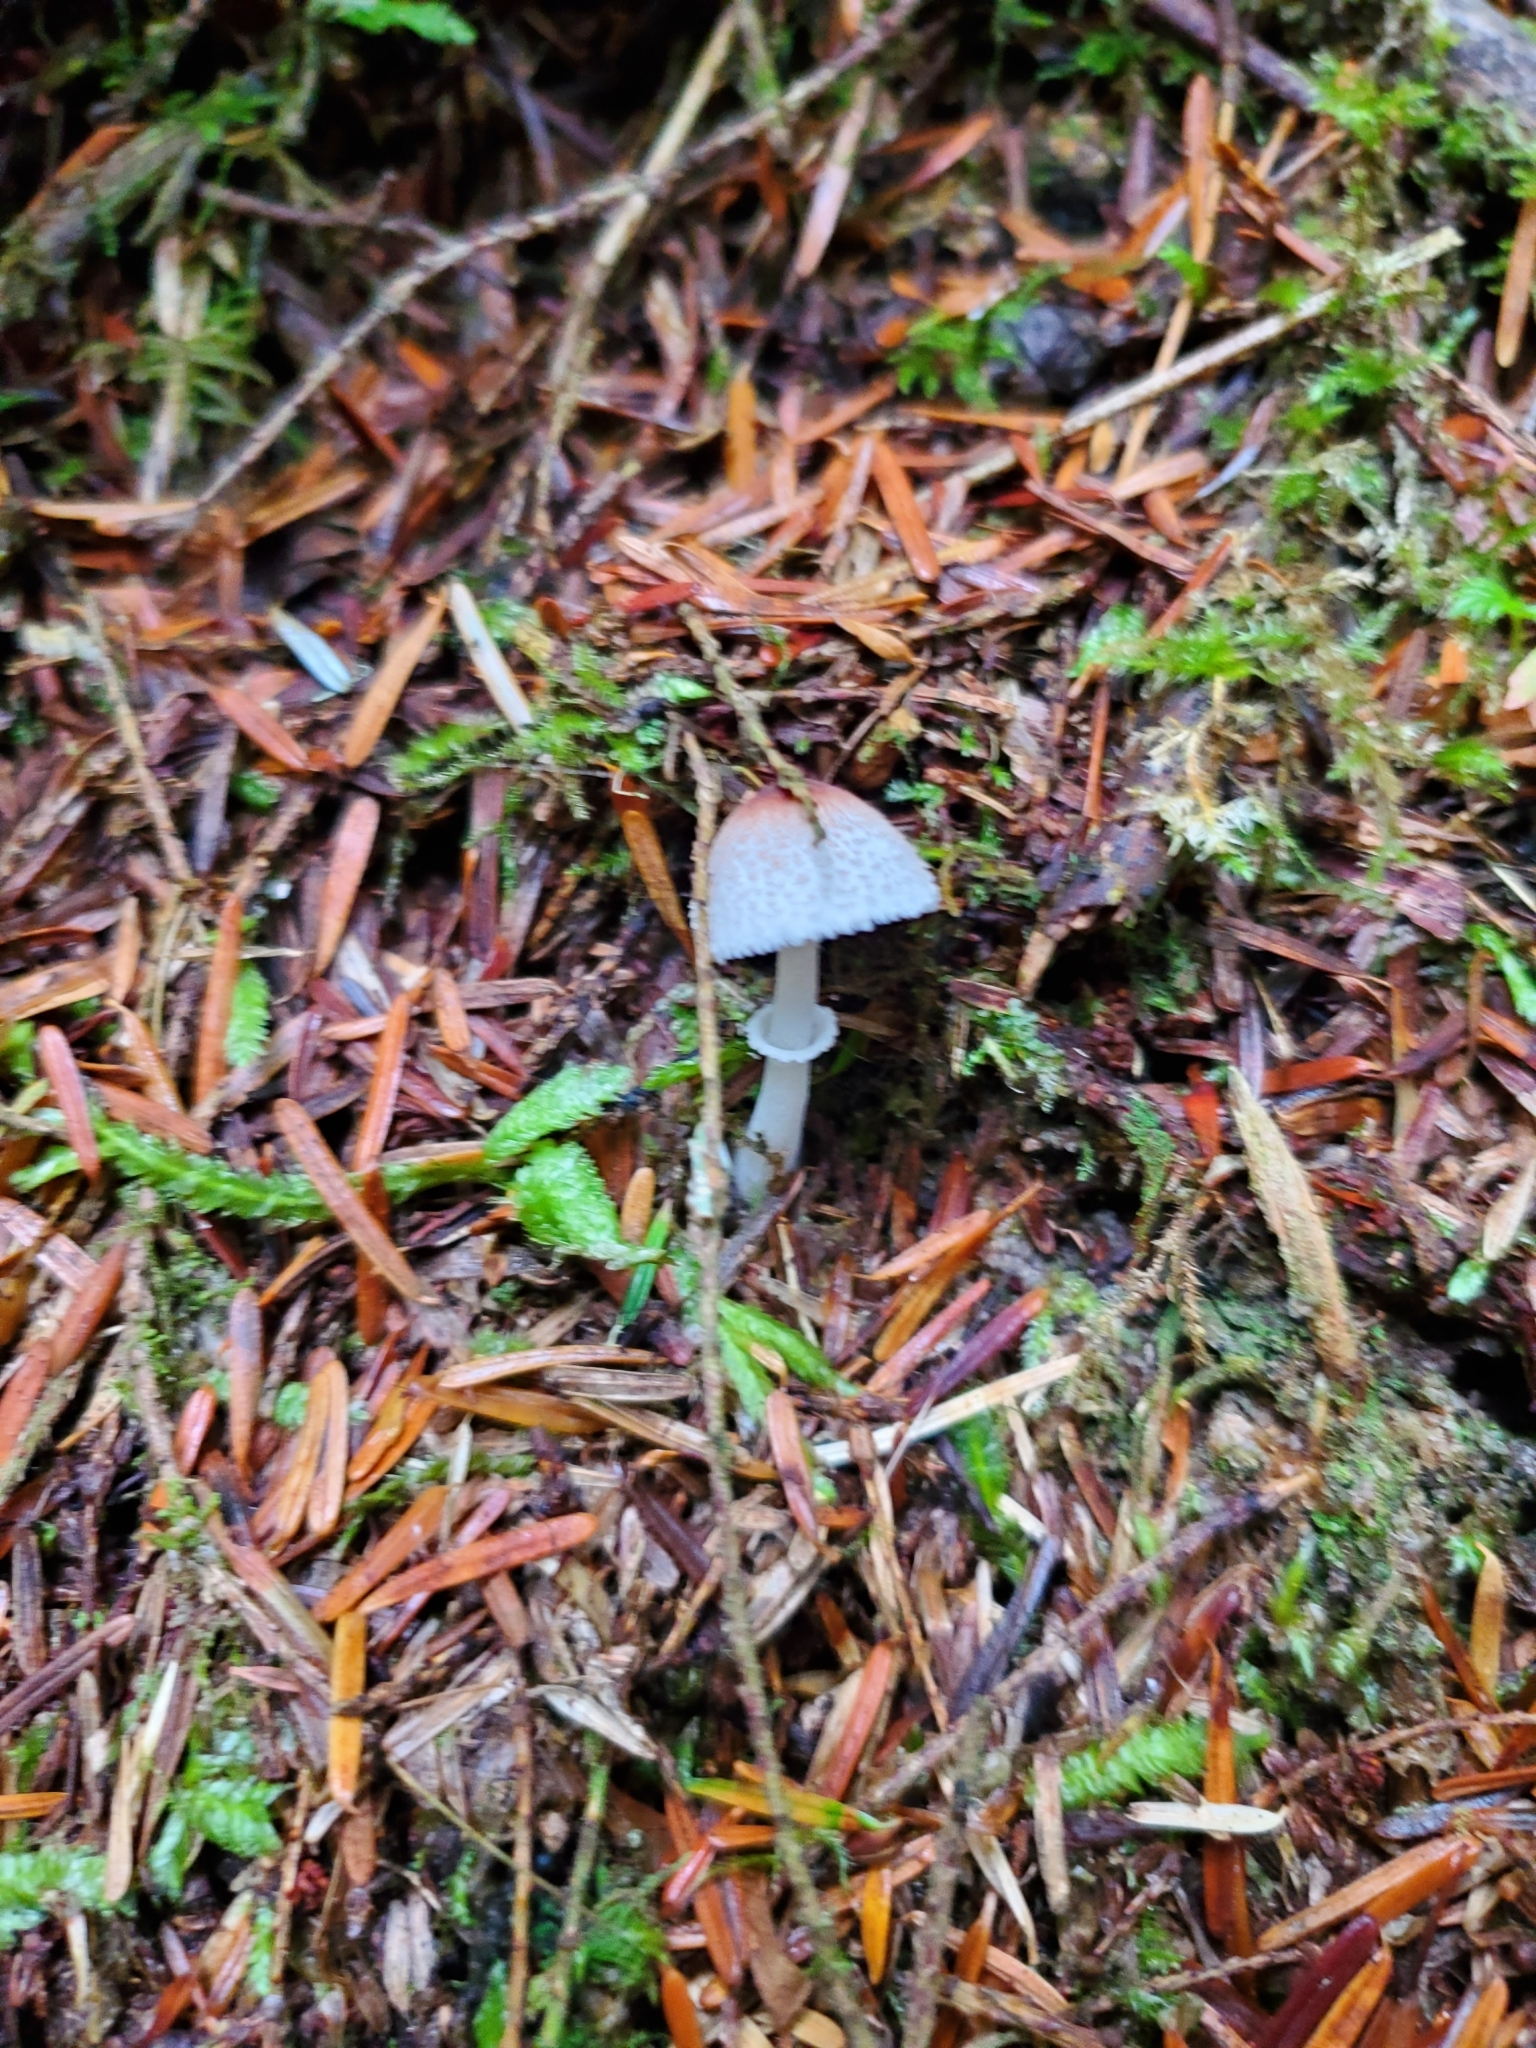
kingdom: Fungi
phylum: Basidiomycota
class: Agaricomycetes
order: Agaricales
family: Agaricaceae
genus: Lepiota
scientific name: Lepiota rubrotinctoides
